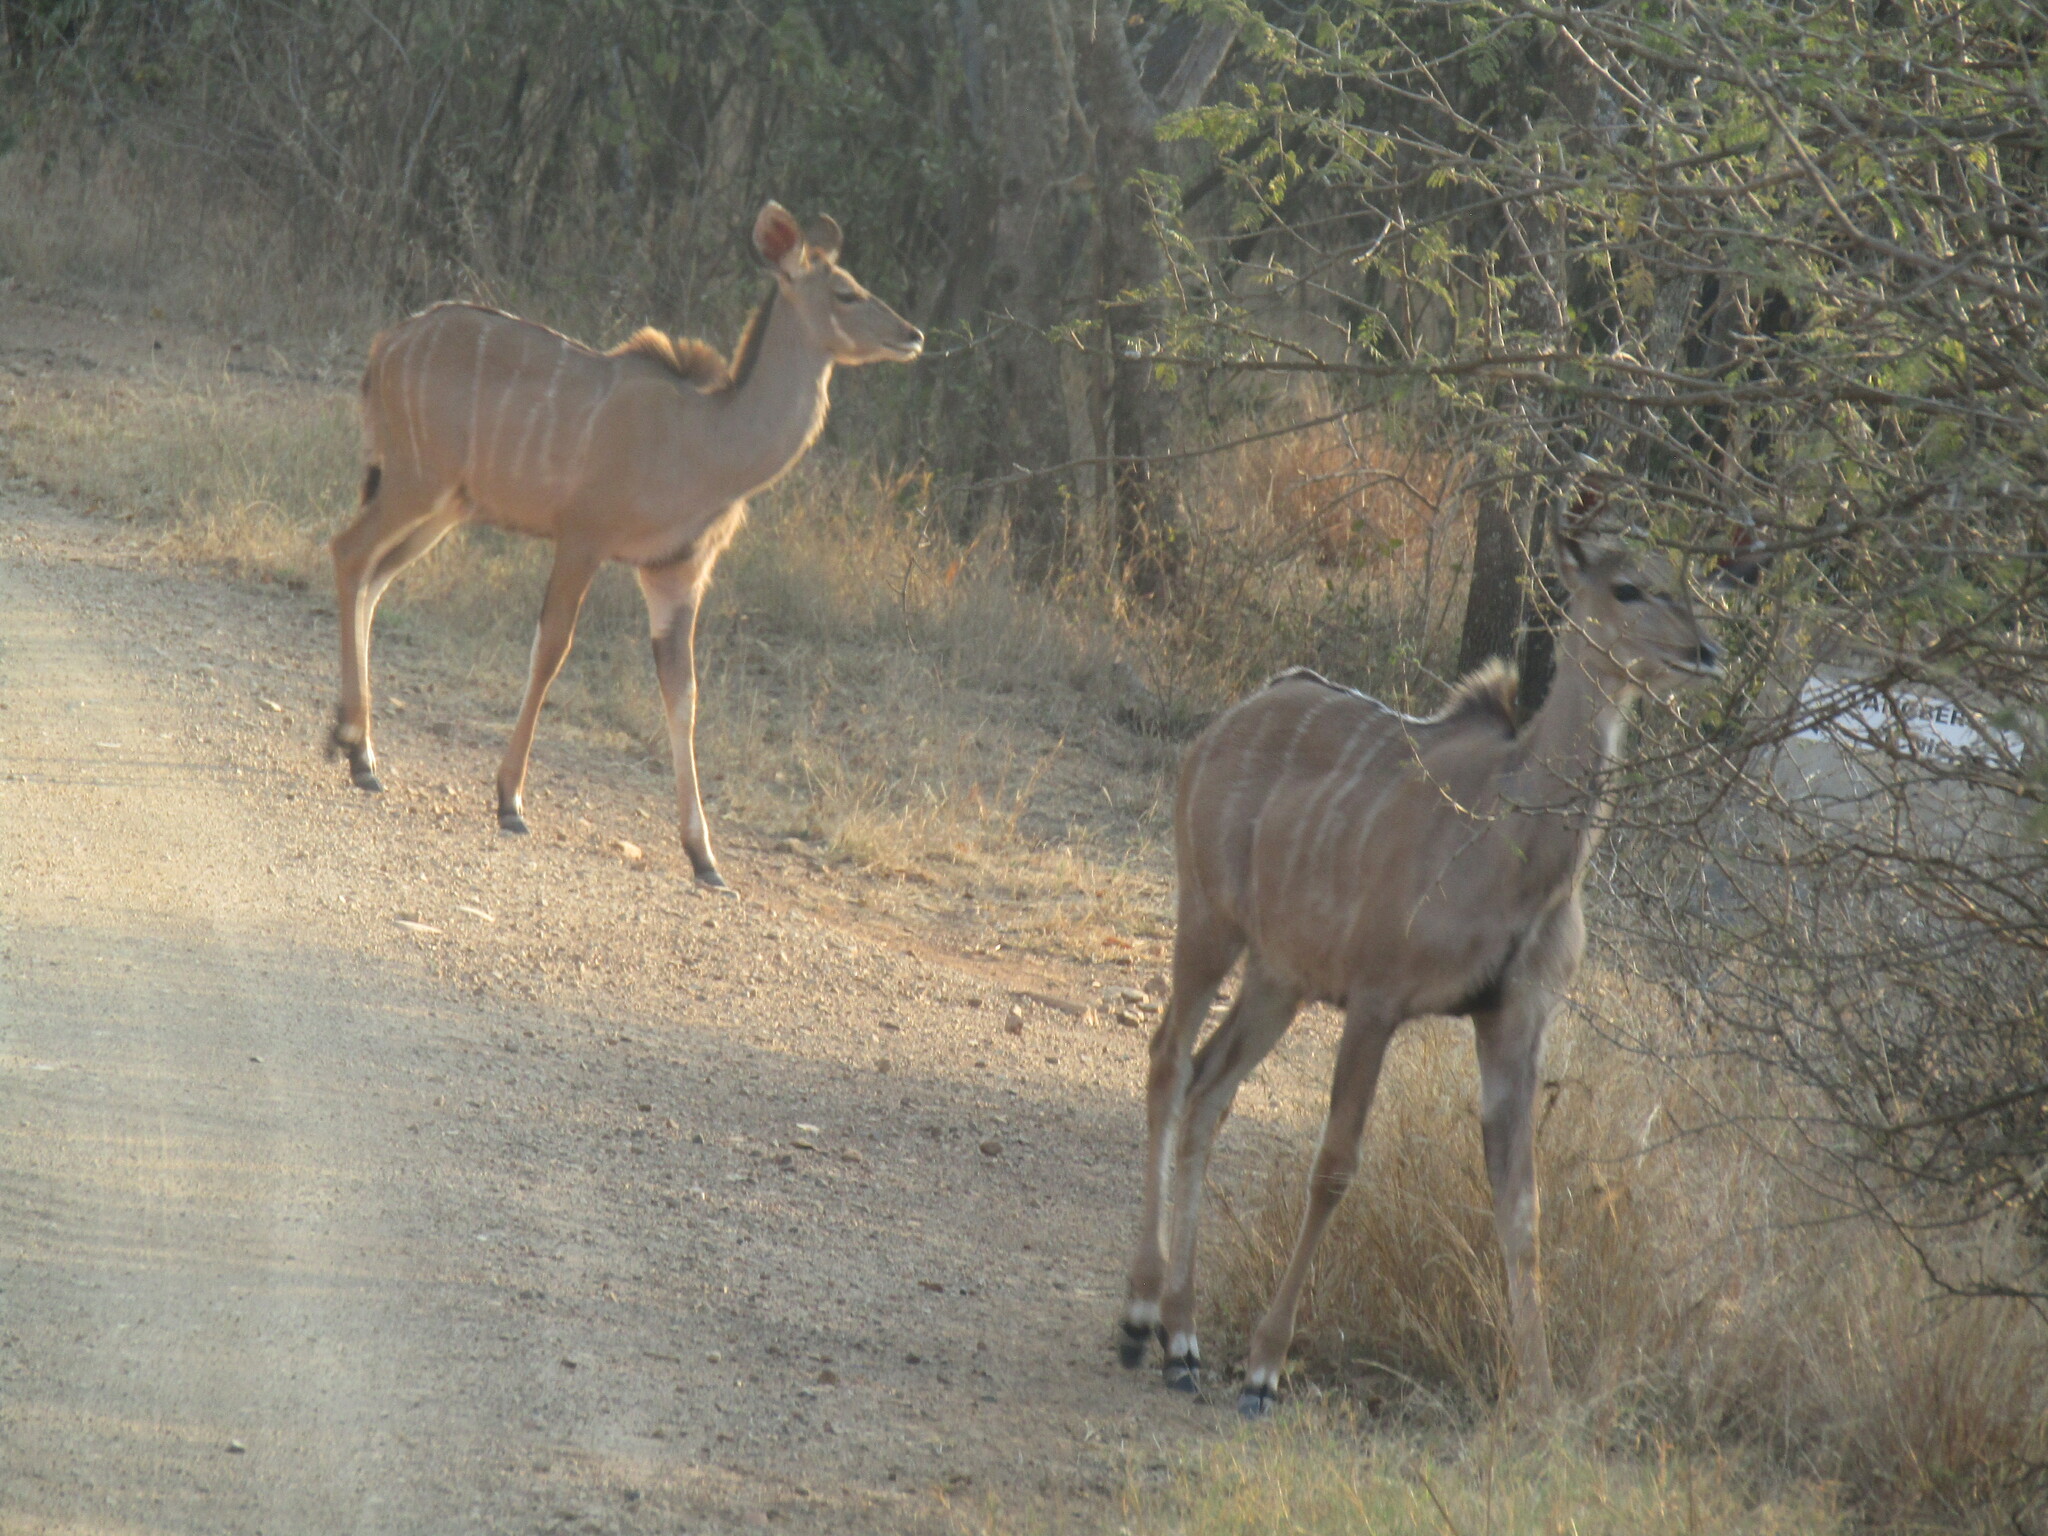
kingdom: Animalia
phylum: Chordata
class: Mammalia
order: Artiodactyla
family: Bovidae
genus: Tragelaphus
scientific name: Tragelaphus strepsiceros
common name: Greater kudu
